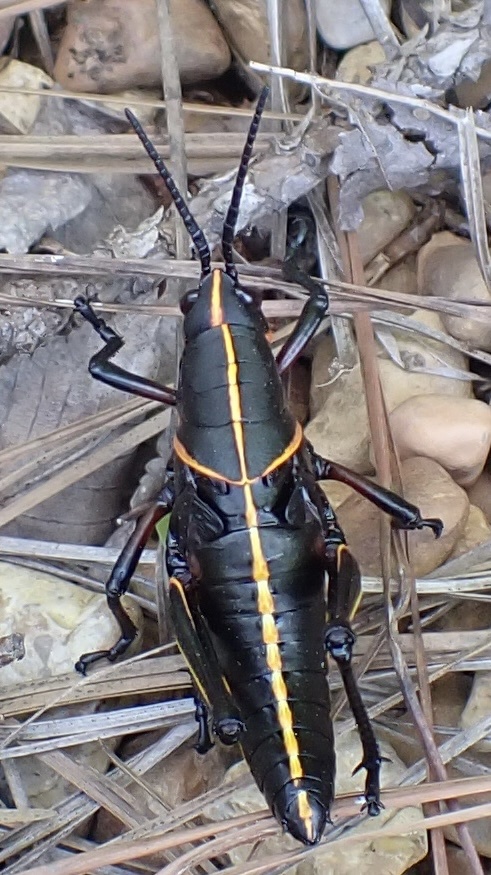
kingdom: Animalia
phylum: Arthropoda
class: Insecta
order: Orthoptera
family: Romaleidae
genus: Romalea
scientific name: Romalea microptera
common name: Eastern lubber grasshopper
